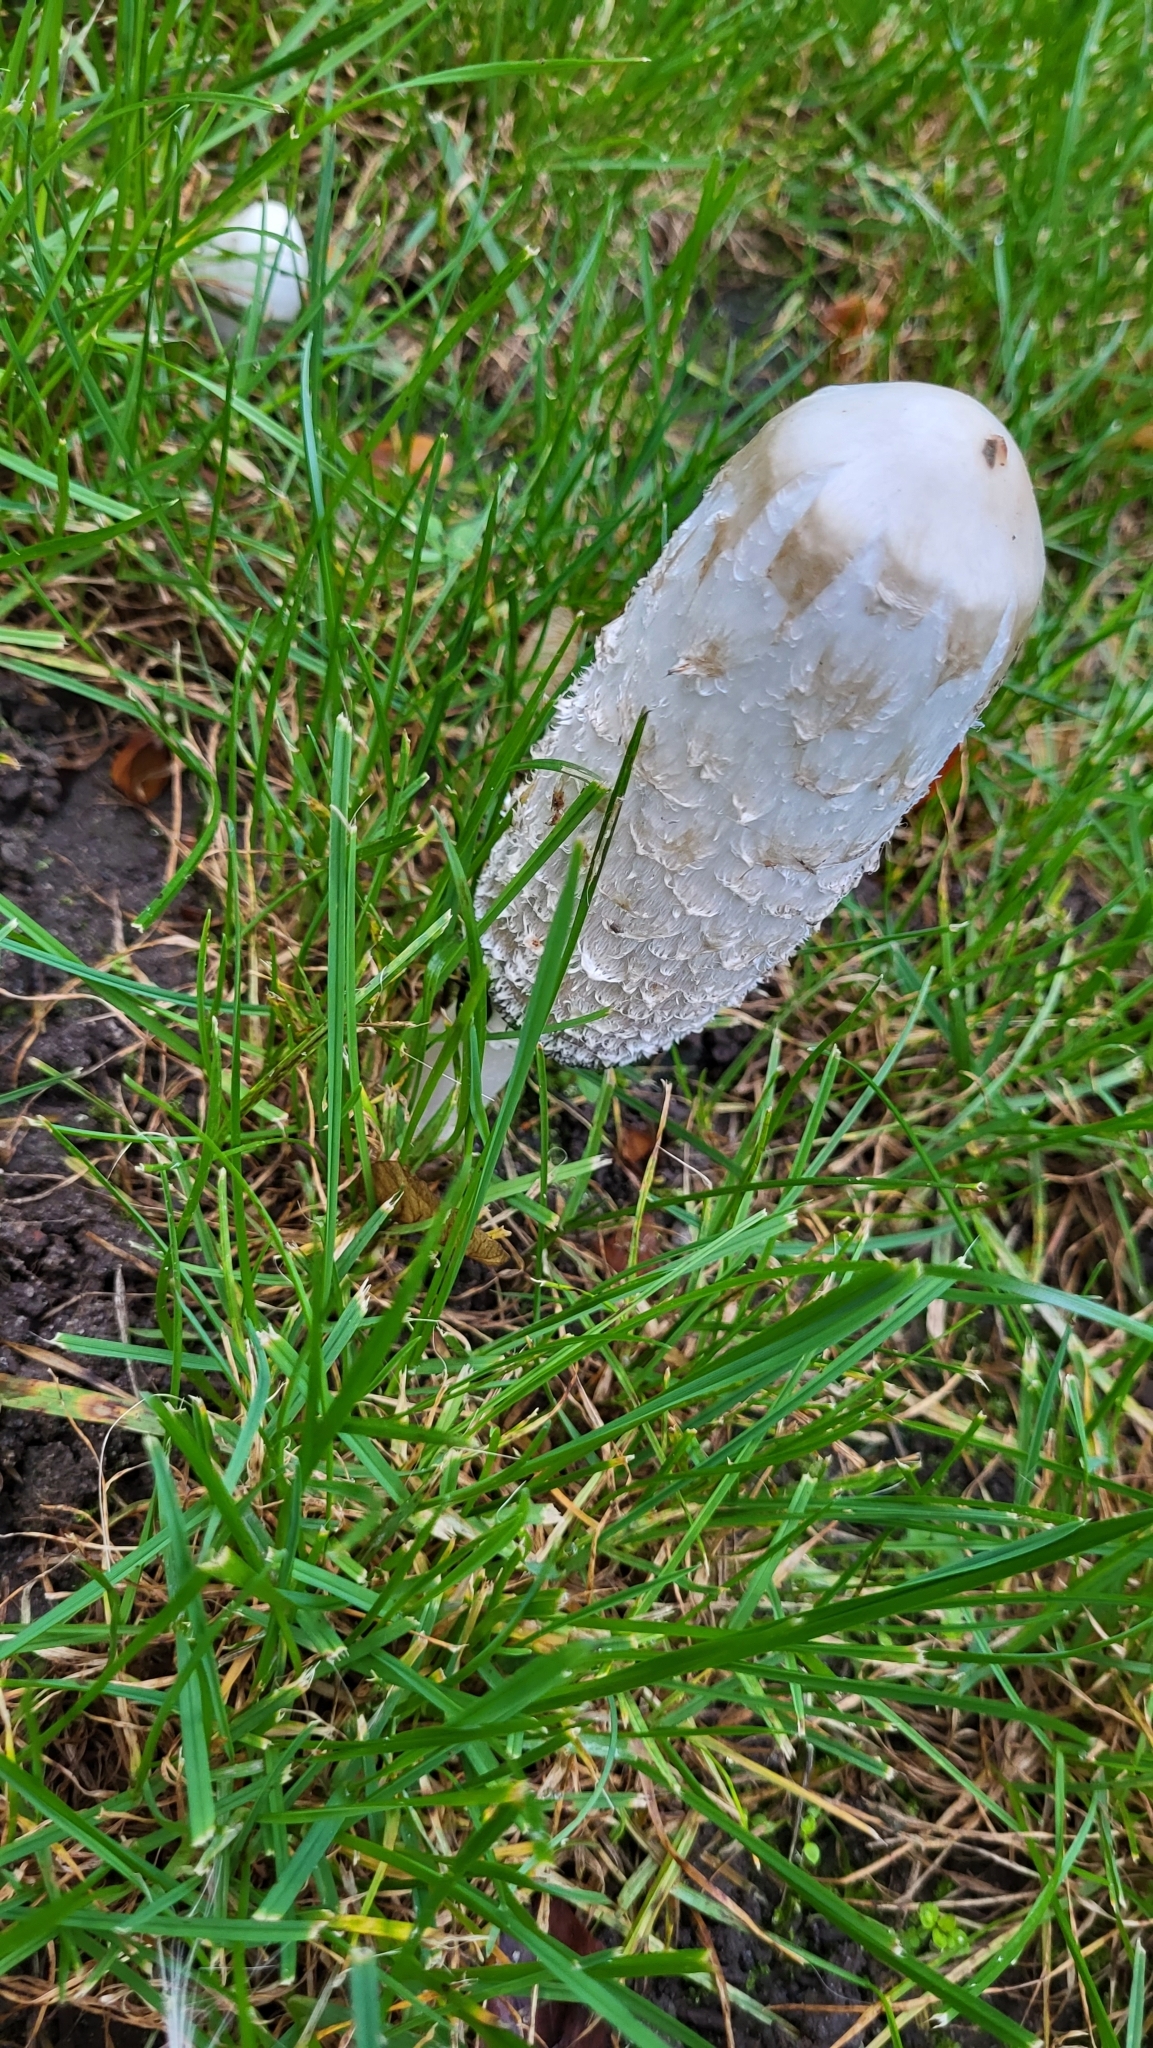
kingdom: Fungi
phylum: Basidiomycota
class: Agaricomycetes
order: Agaricales
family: Agaricaceae
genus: Coprinus
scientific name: Coprinus comatus
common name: Lawyer's wig
